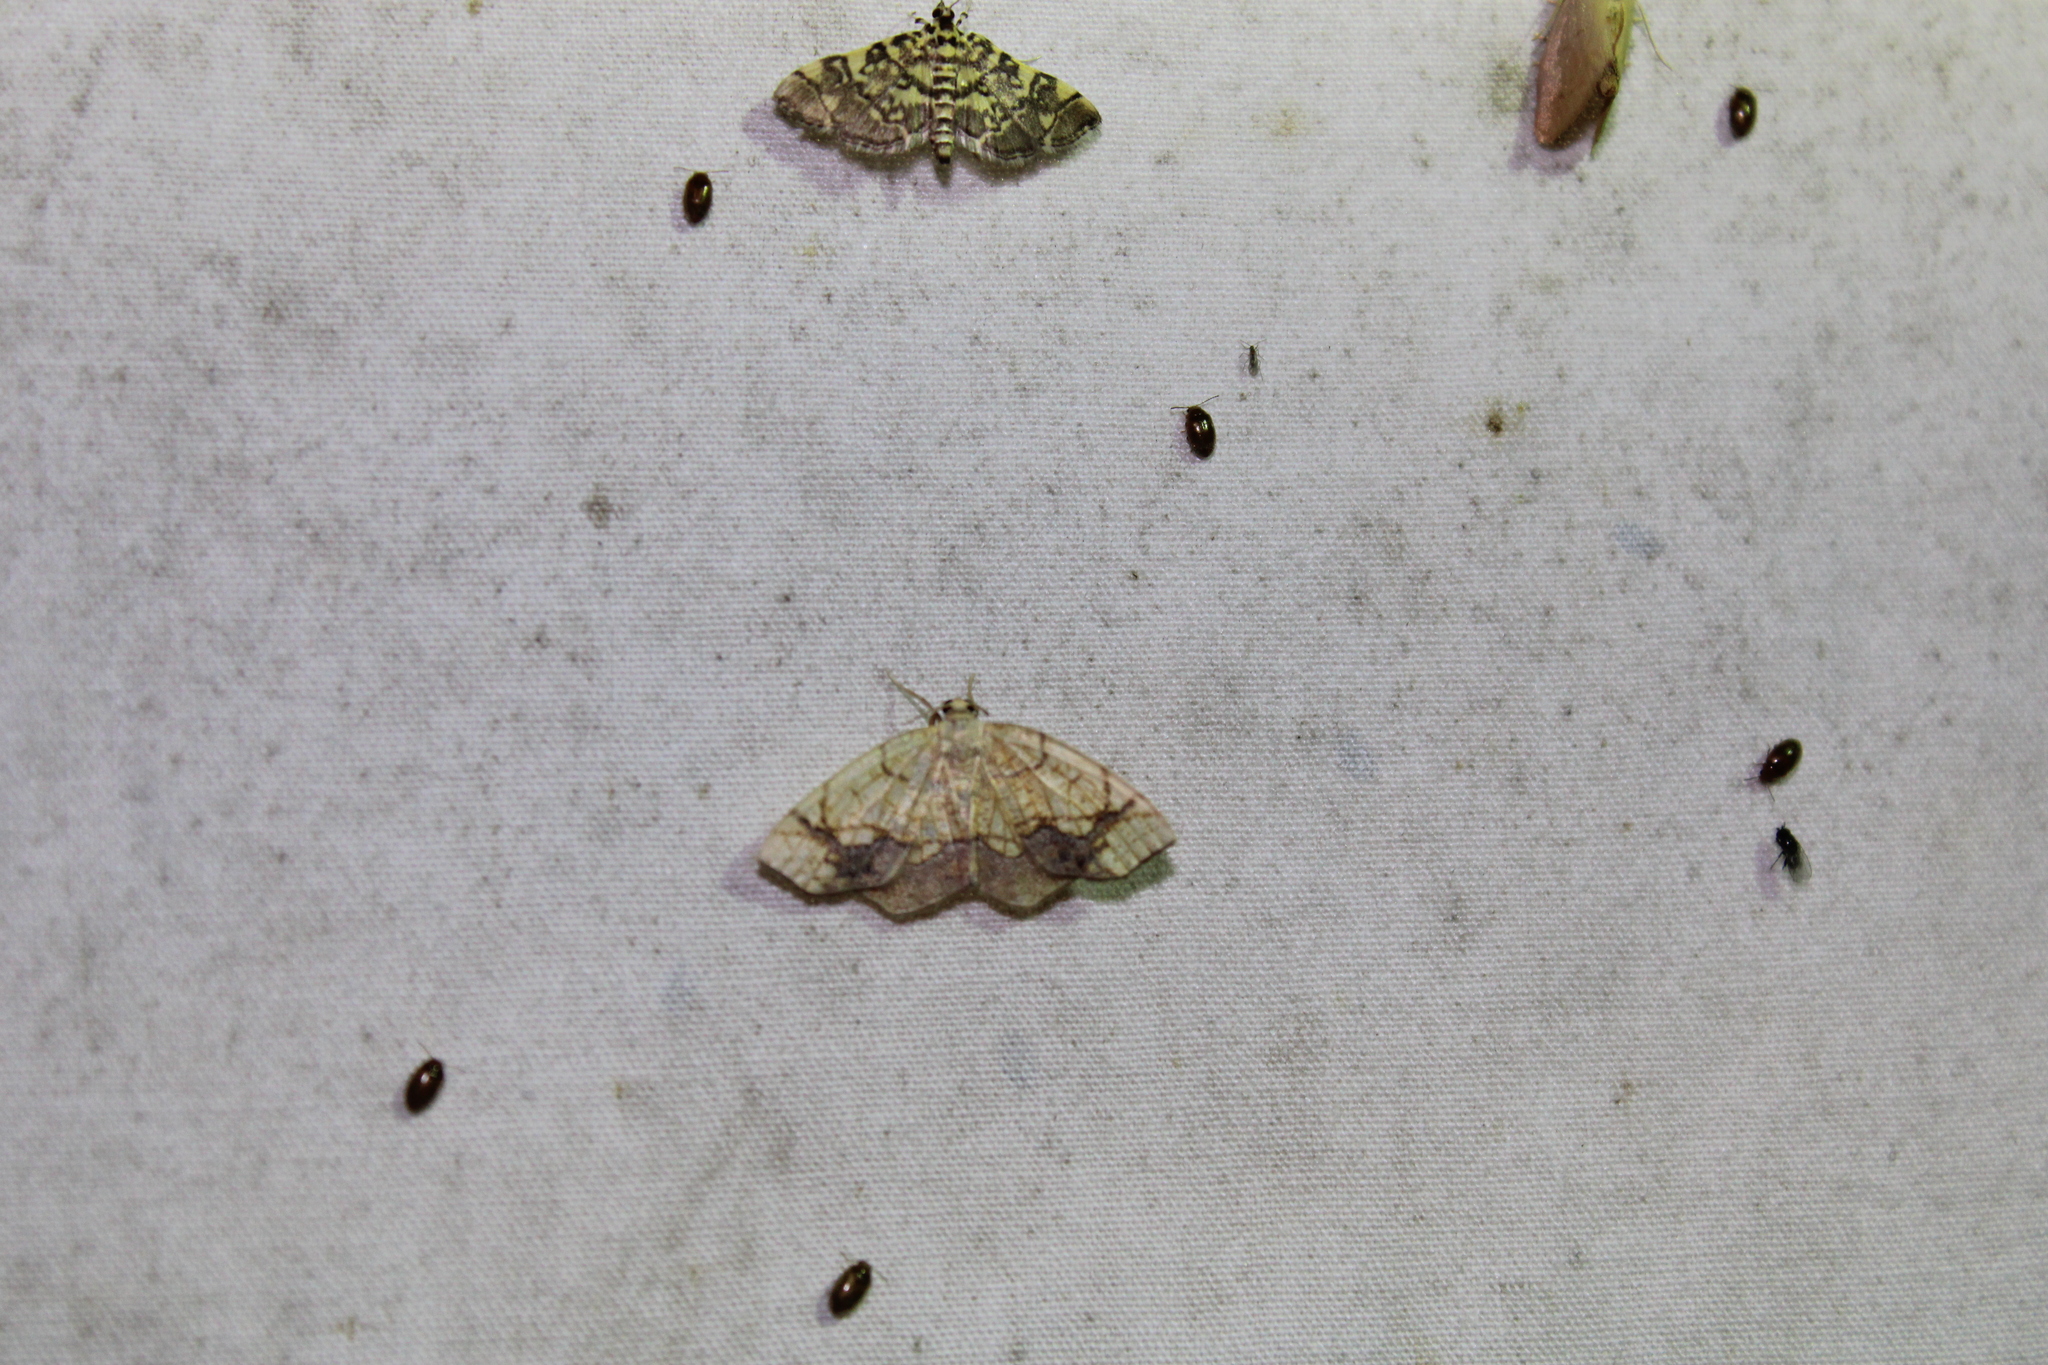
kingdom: Animalia
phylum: Arthropoda
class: Insecta
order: Lepidoptera
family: Geometridae
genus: Nematocampa
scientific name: Nematocampa resistaria
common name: Horned spanworm moth
